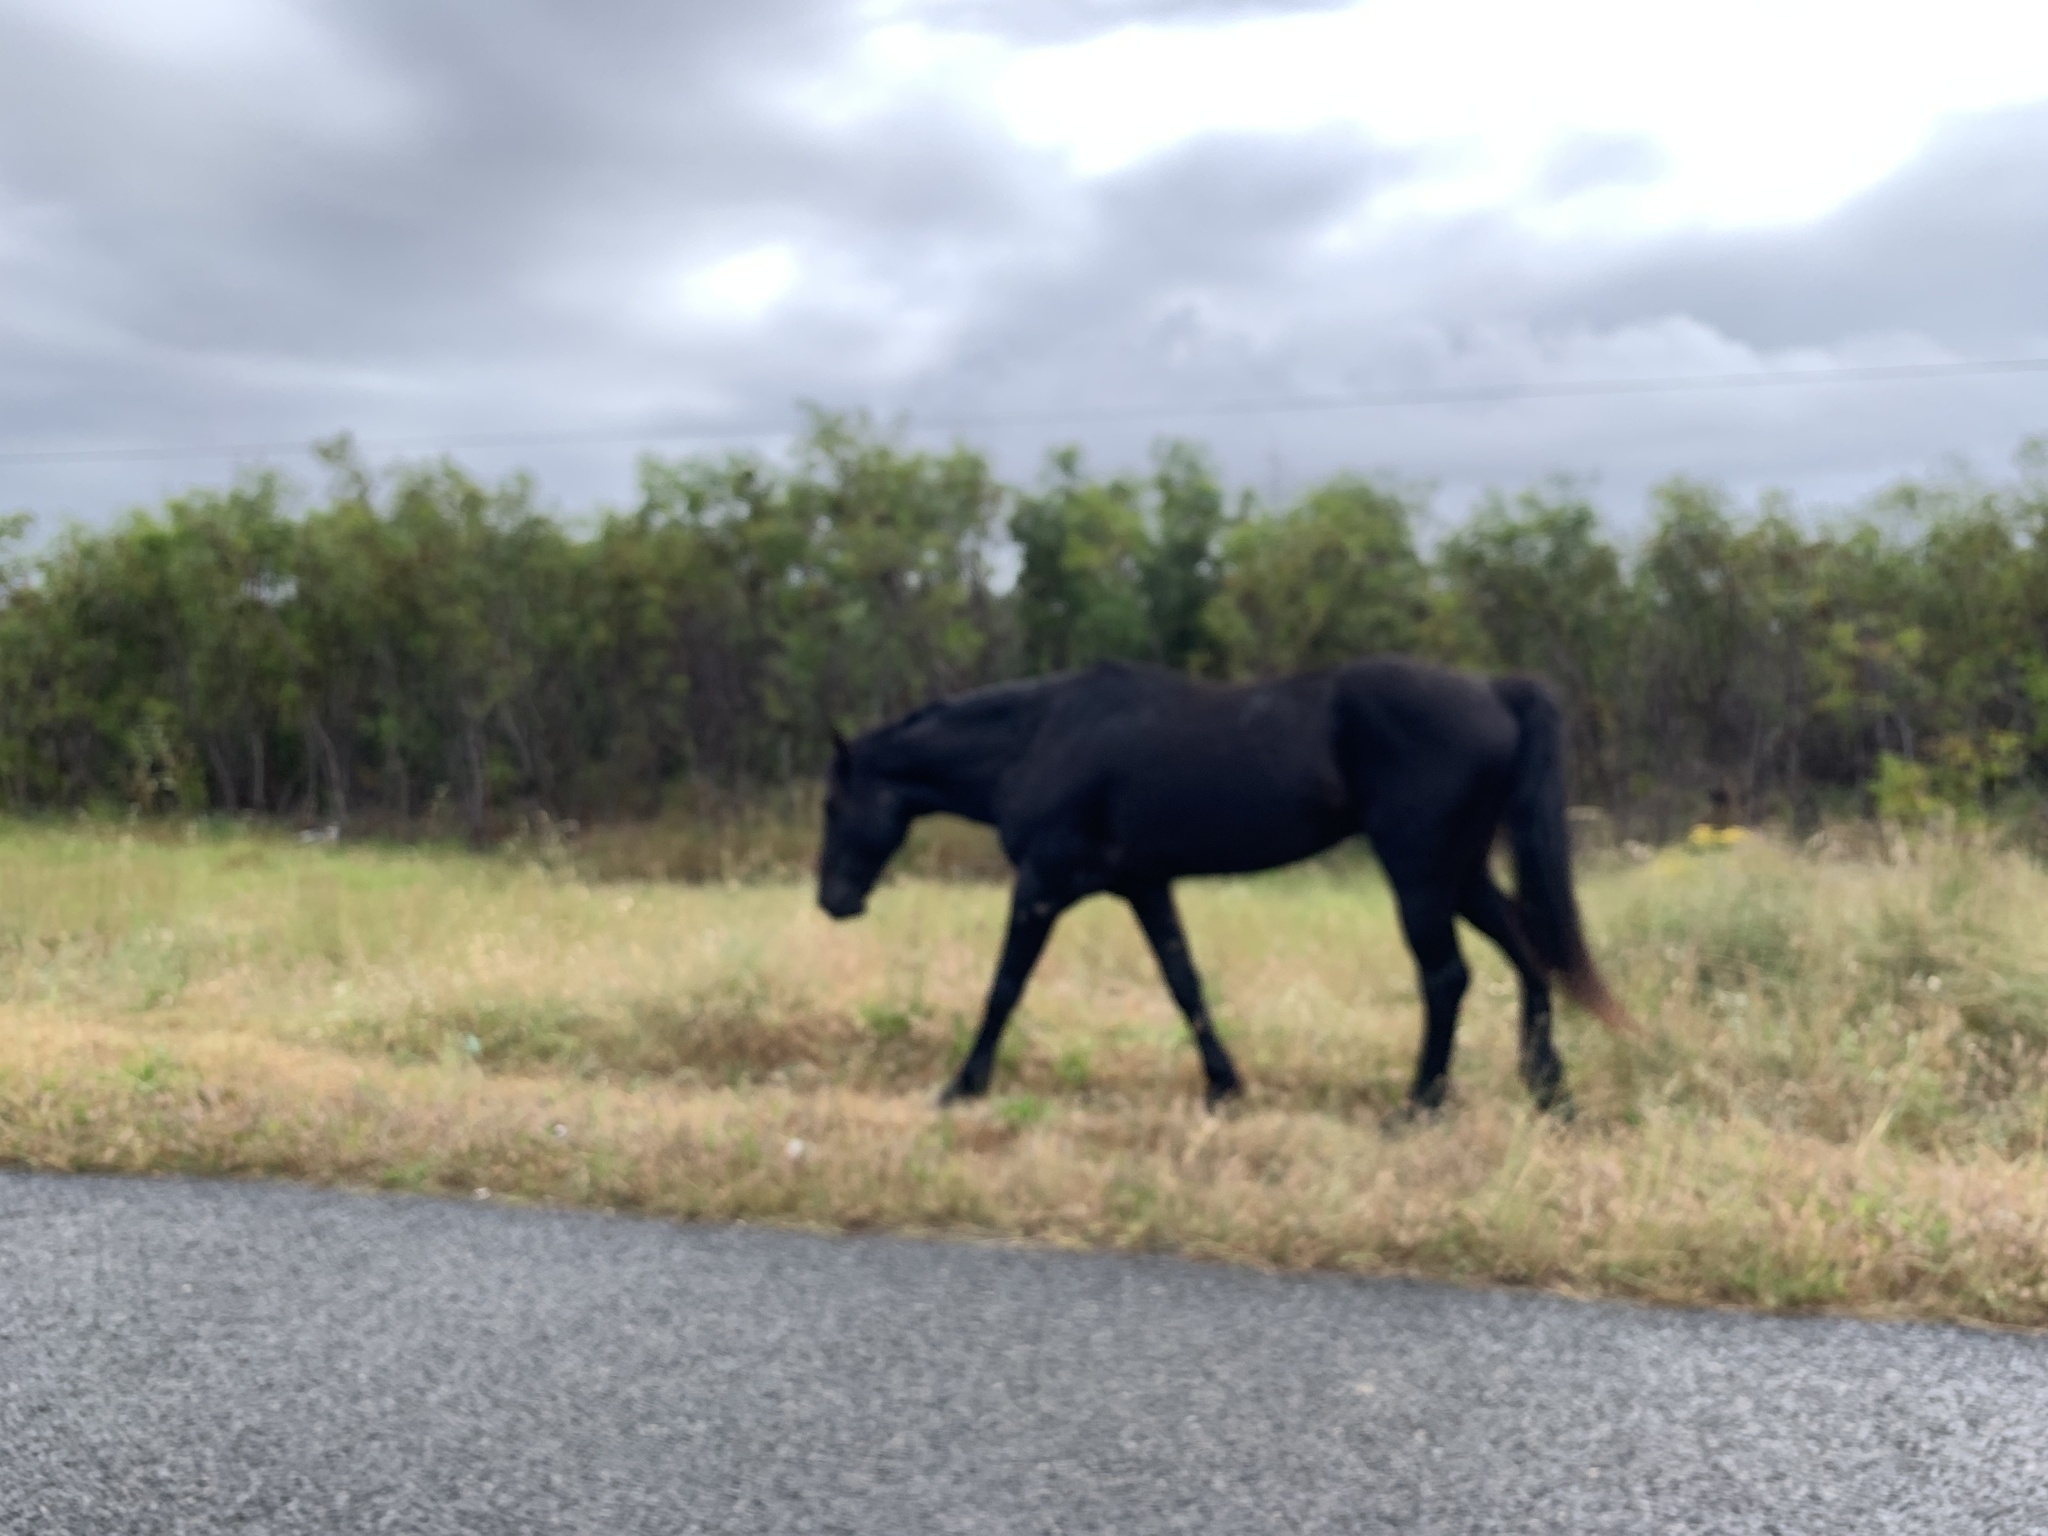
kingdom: Animalia
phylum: Chordata
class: Mammalia
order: Perissodactyla
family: Equidae
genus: Equus
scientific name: Equus caballus
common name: Horse
